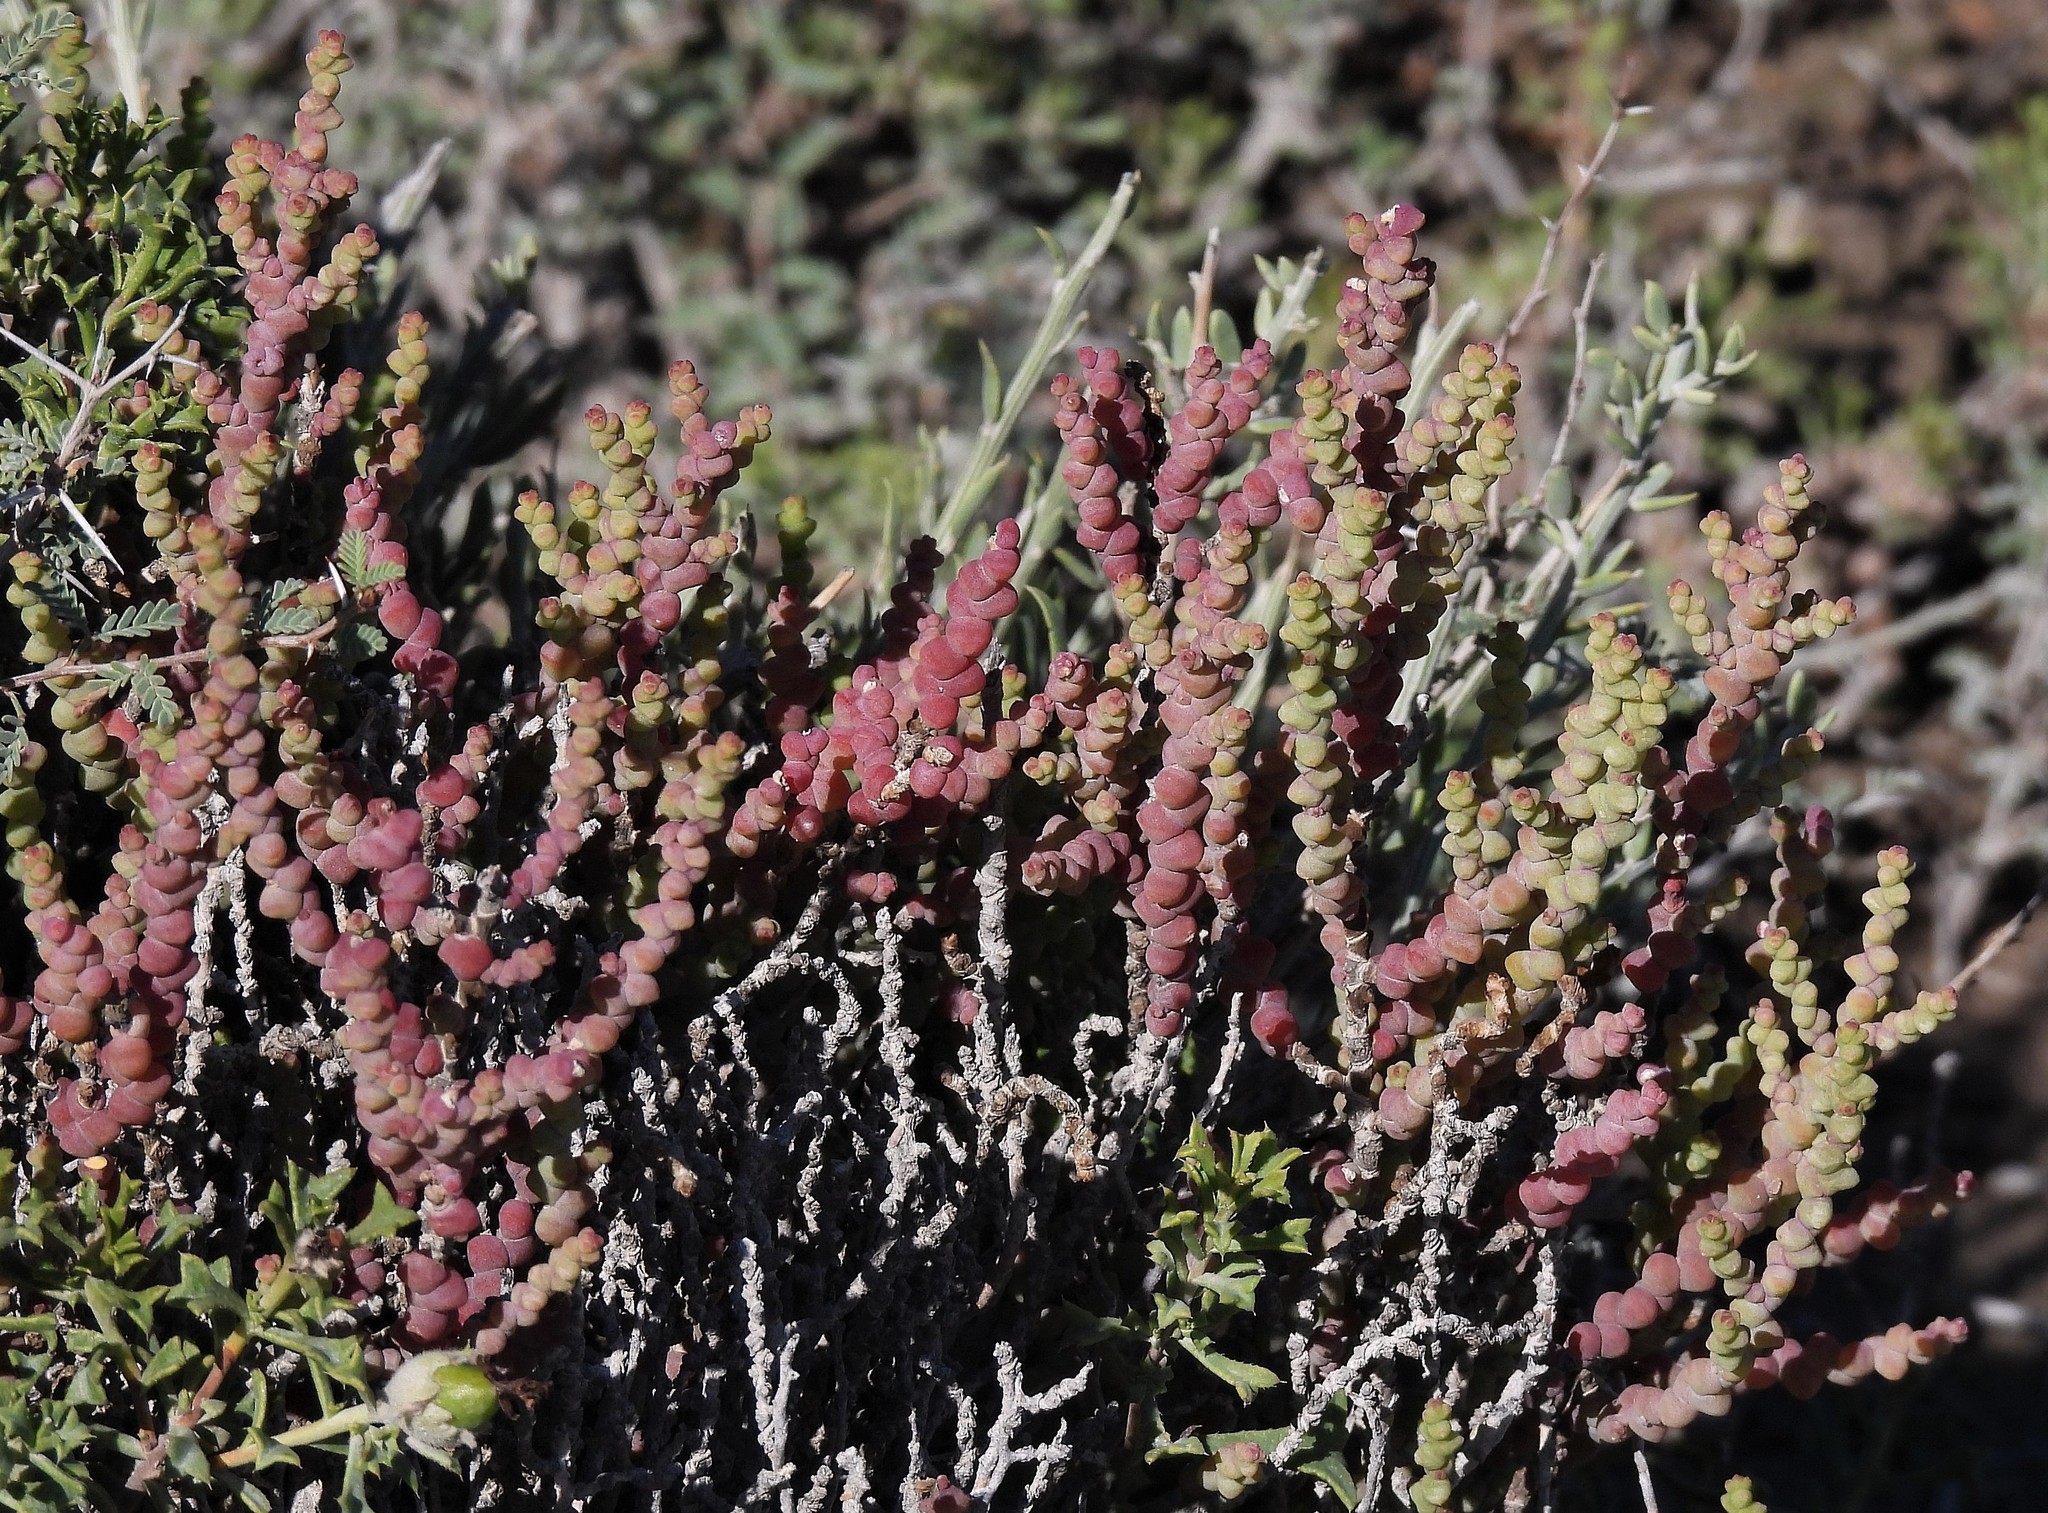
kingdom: Plantae
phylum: Tracheophyta
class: Magnoliopsida
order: Caryophyllales
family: Amaranthaceae
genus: Allenrolfea
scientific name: Allenrolfea patagonica
